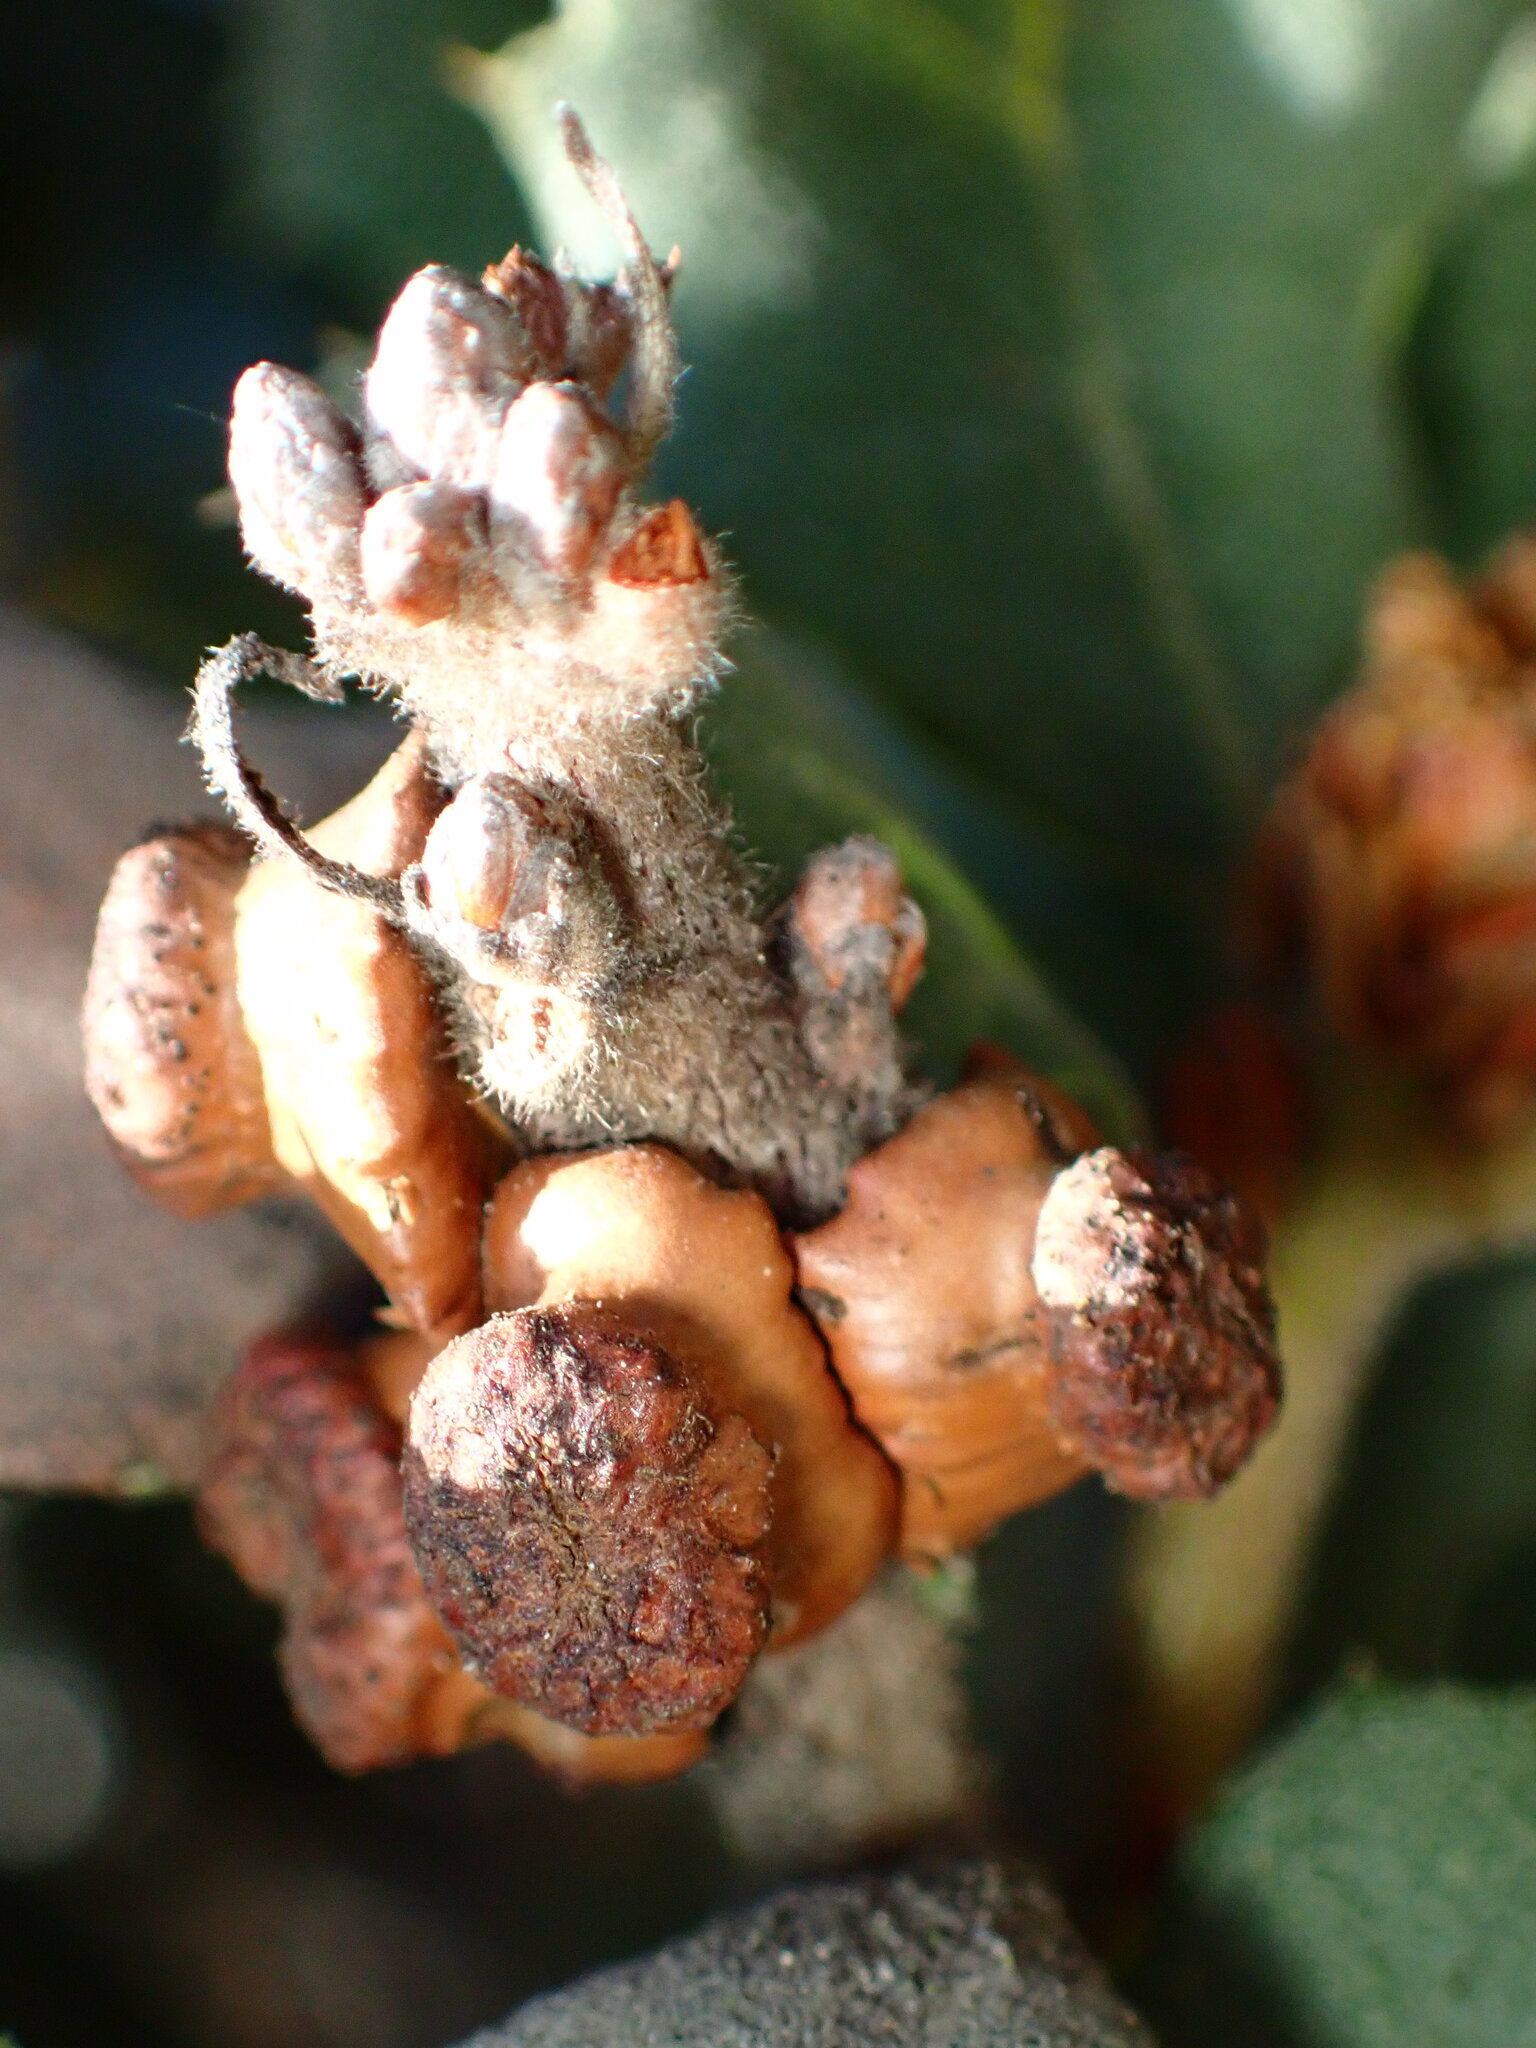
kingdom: Animalia
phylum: Arthropoda
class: Insecta
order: Hymenoptera
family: Cynipidae
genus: Disholcaspis
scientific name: Disholcaspis prehensa
